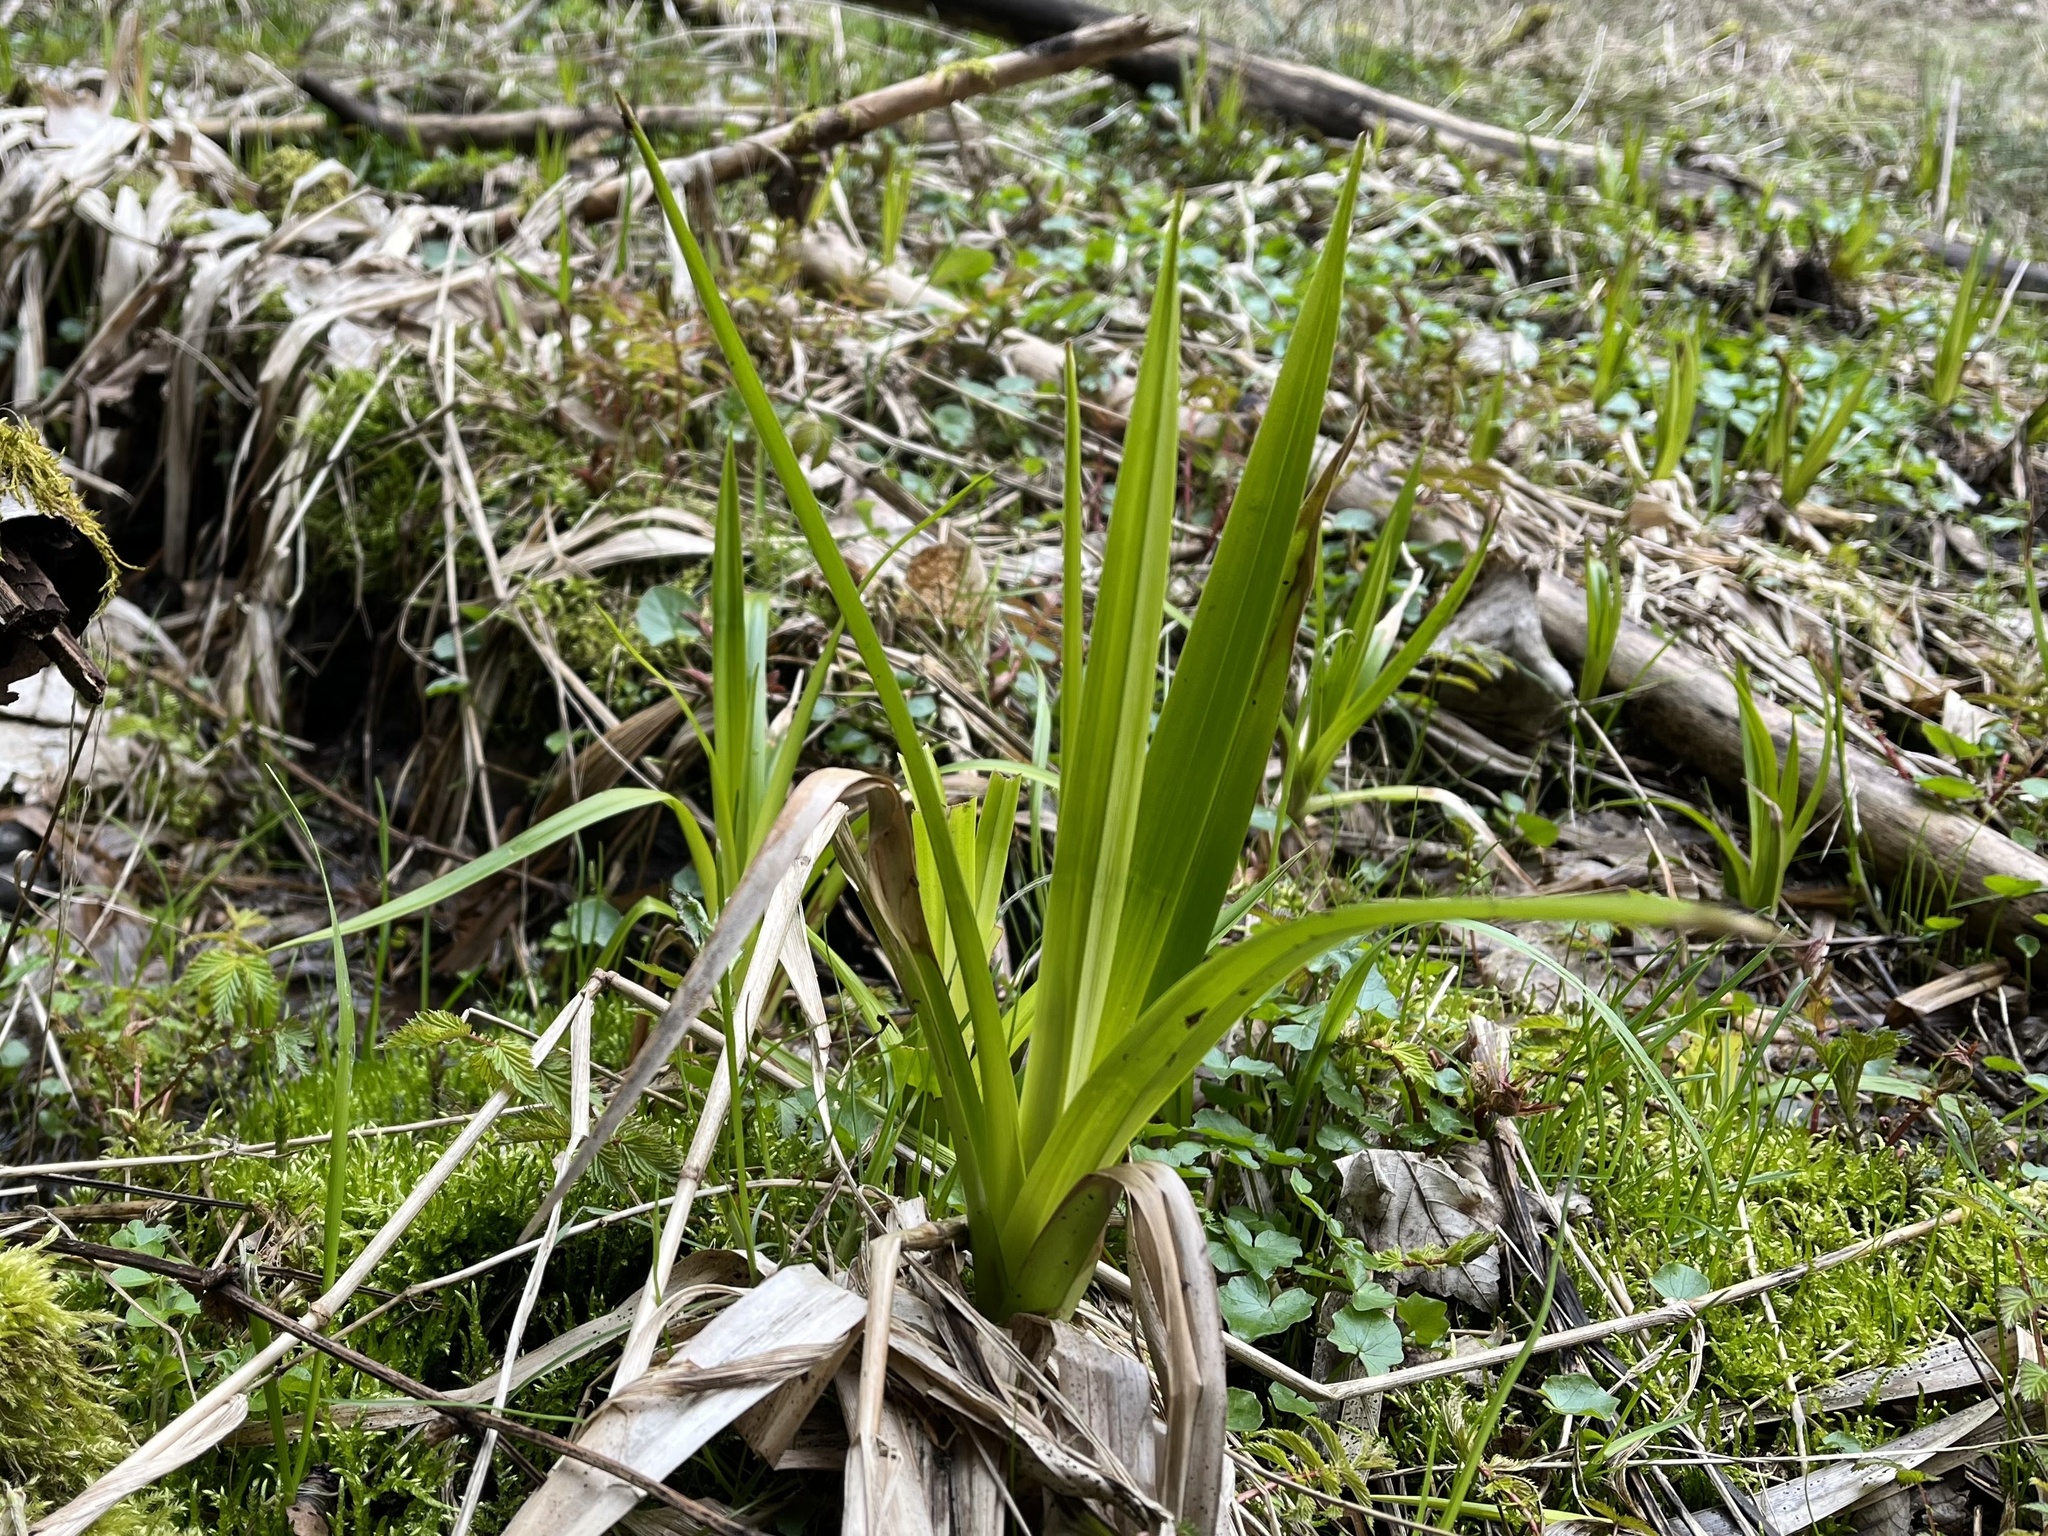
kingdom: Plantae
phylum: Tracheophyta
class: Liliopsida
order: Poales
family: Cyperaceae
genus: Scirpus
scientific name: Scirpus sylvaticus
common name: Wood club-rush
